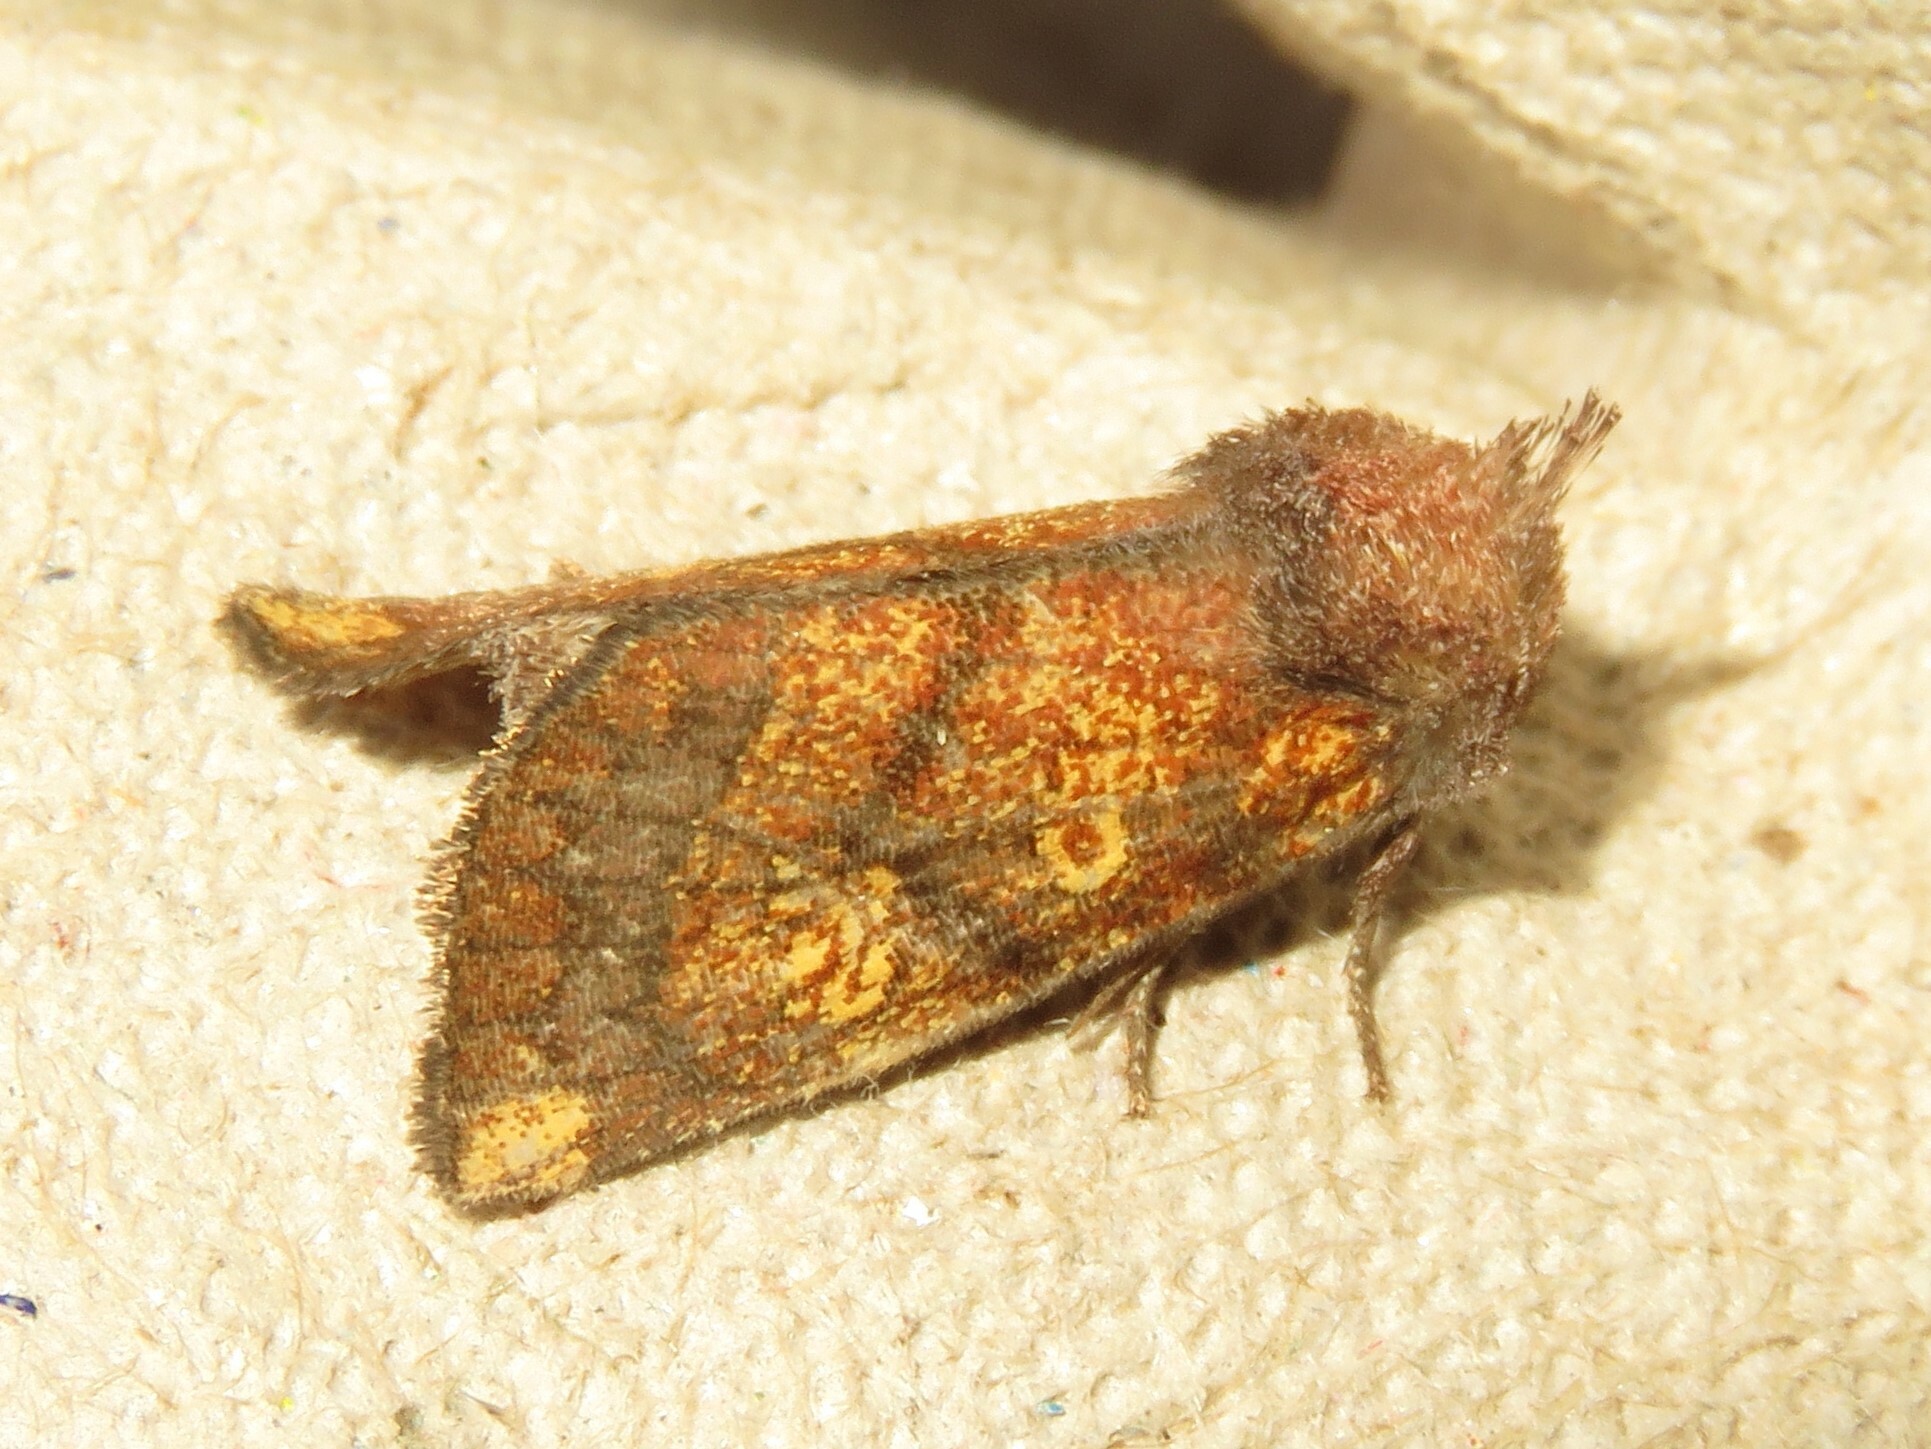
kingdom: Animalia
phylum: Arthropoda
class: Insecta
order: Lepidoptera
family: Noctuidae
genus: Papaipema
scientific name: Papaipema impecuniosa
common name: Aster borer moth
